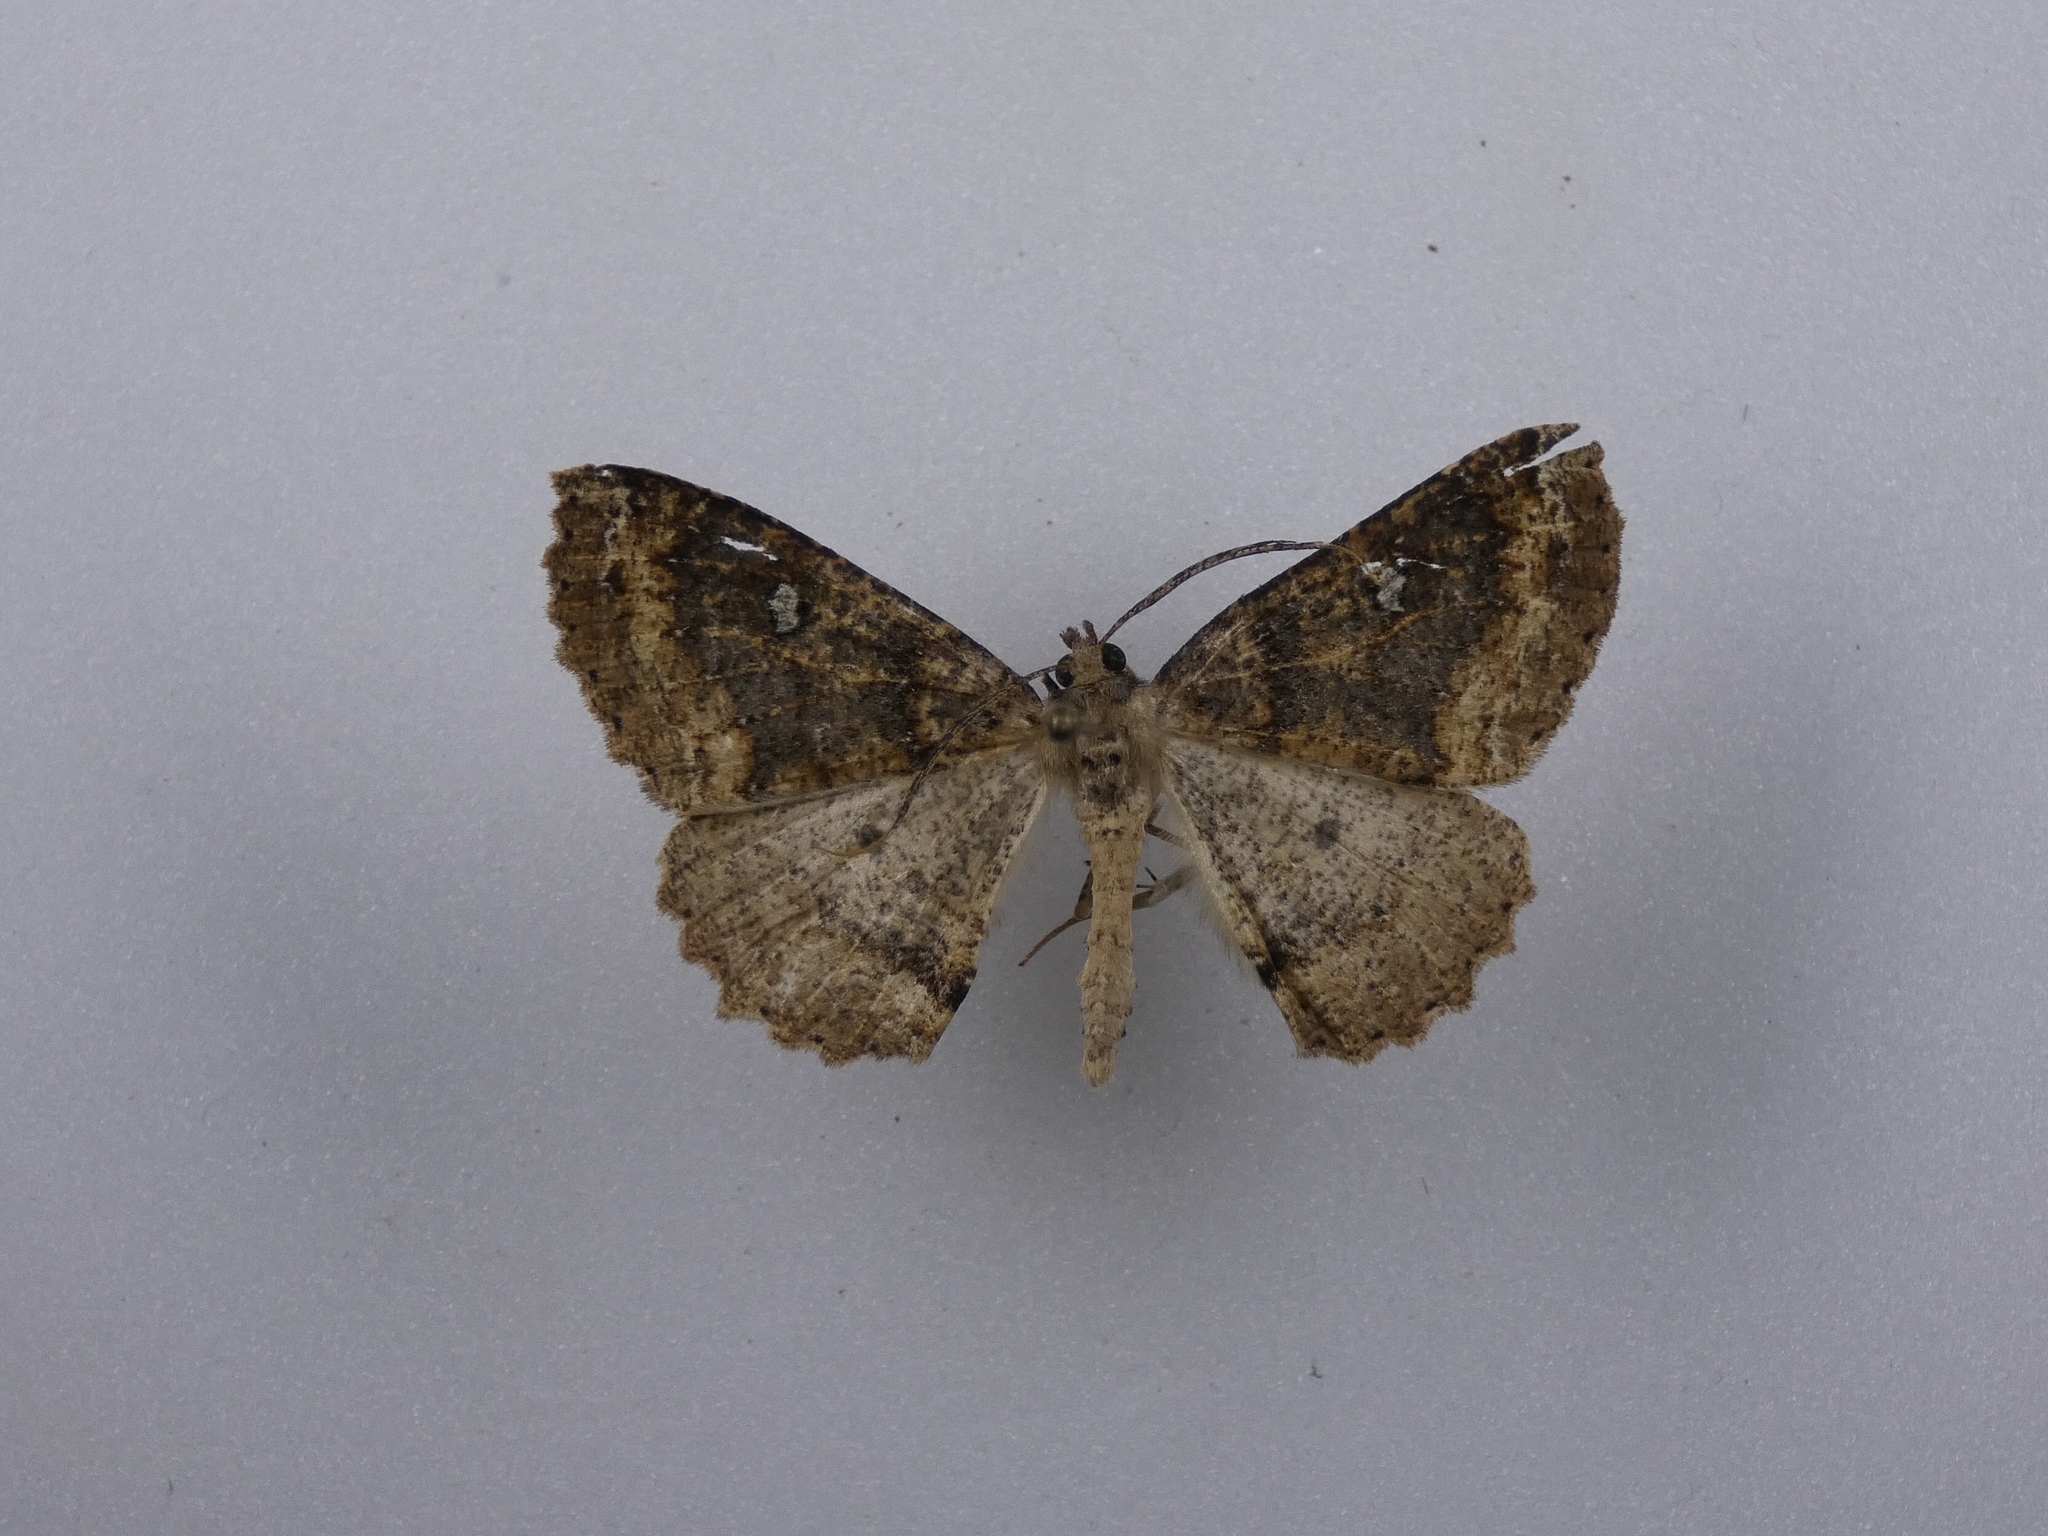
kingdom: Animalia
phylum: Arthropoda
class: Insecta
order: Lepidoptera
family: Geometridae
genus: Cleora
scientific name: Cleora scriptaria
